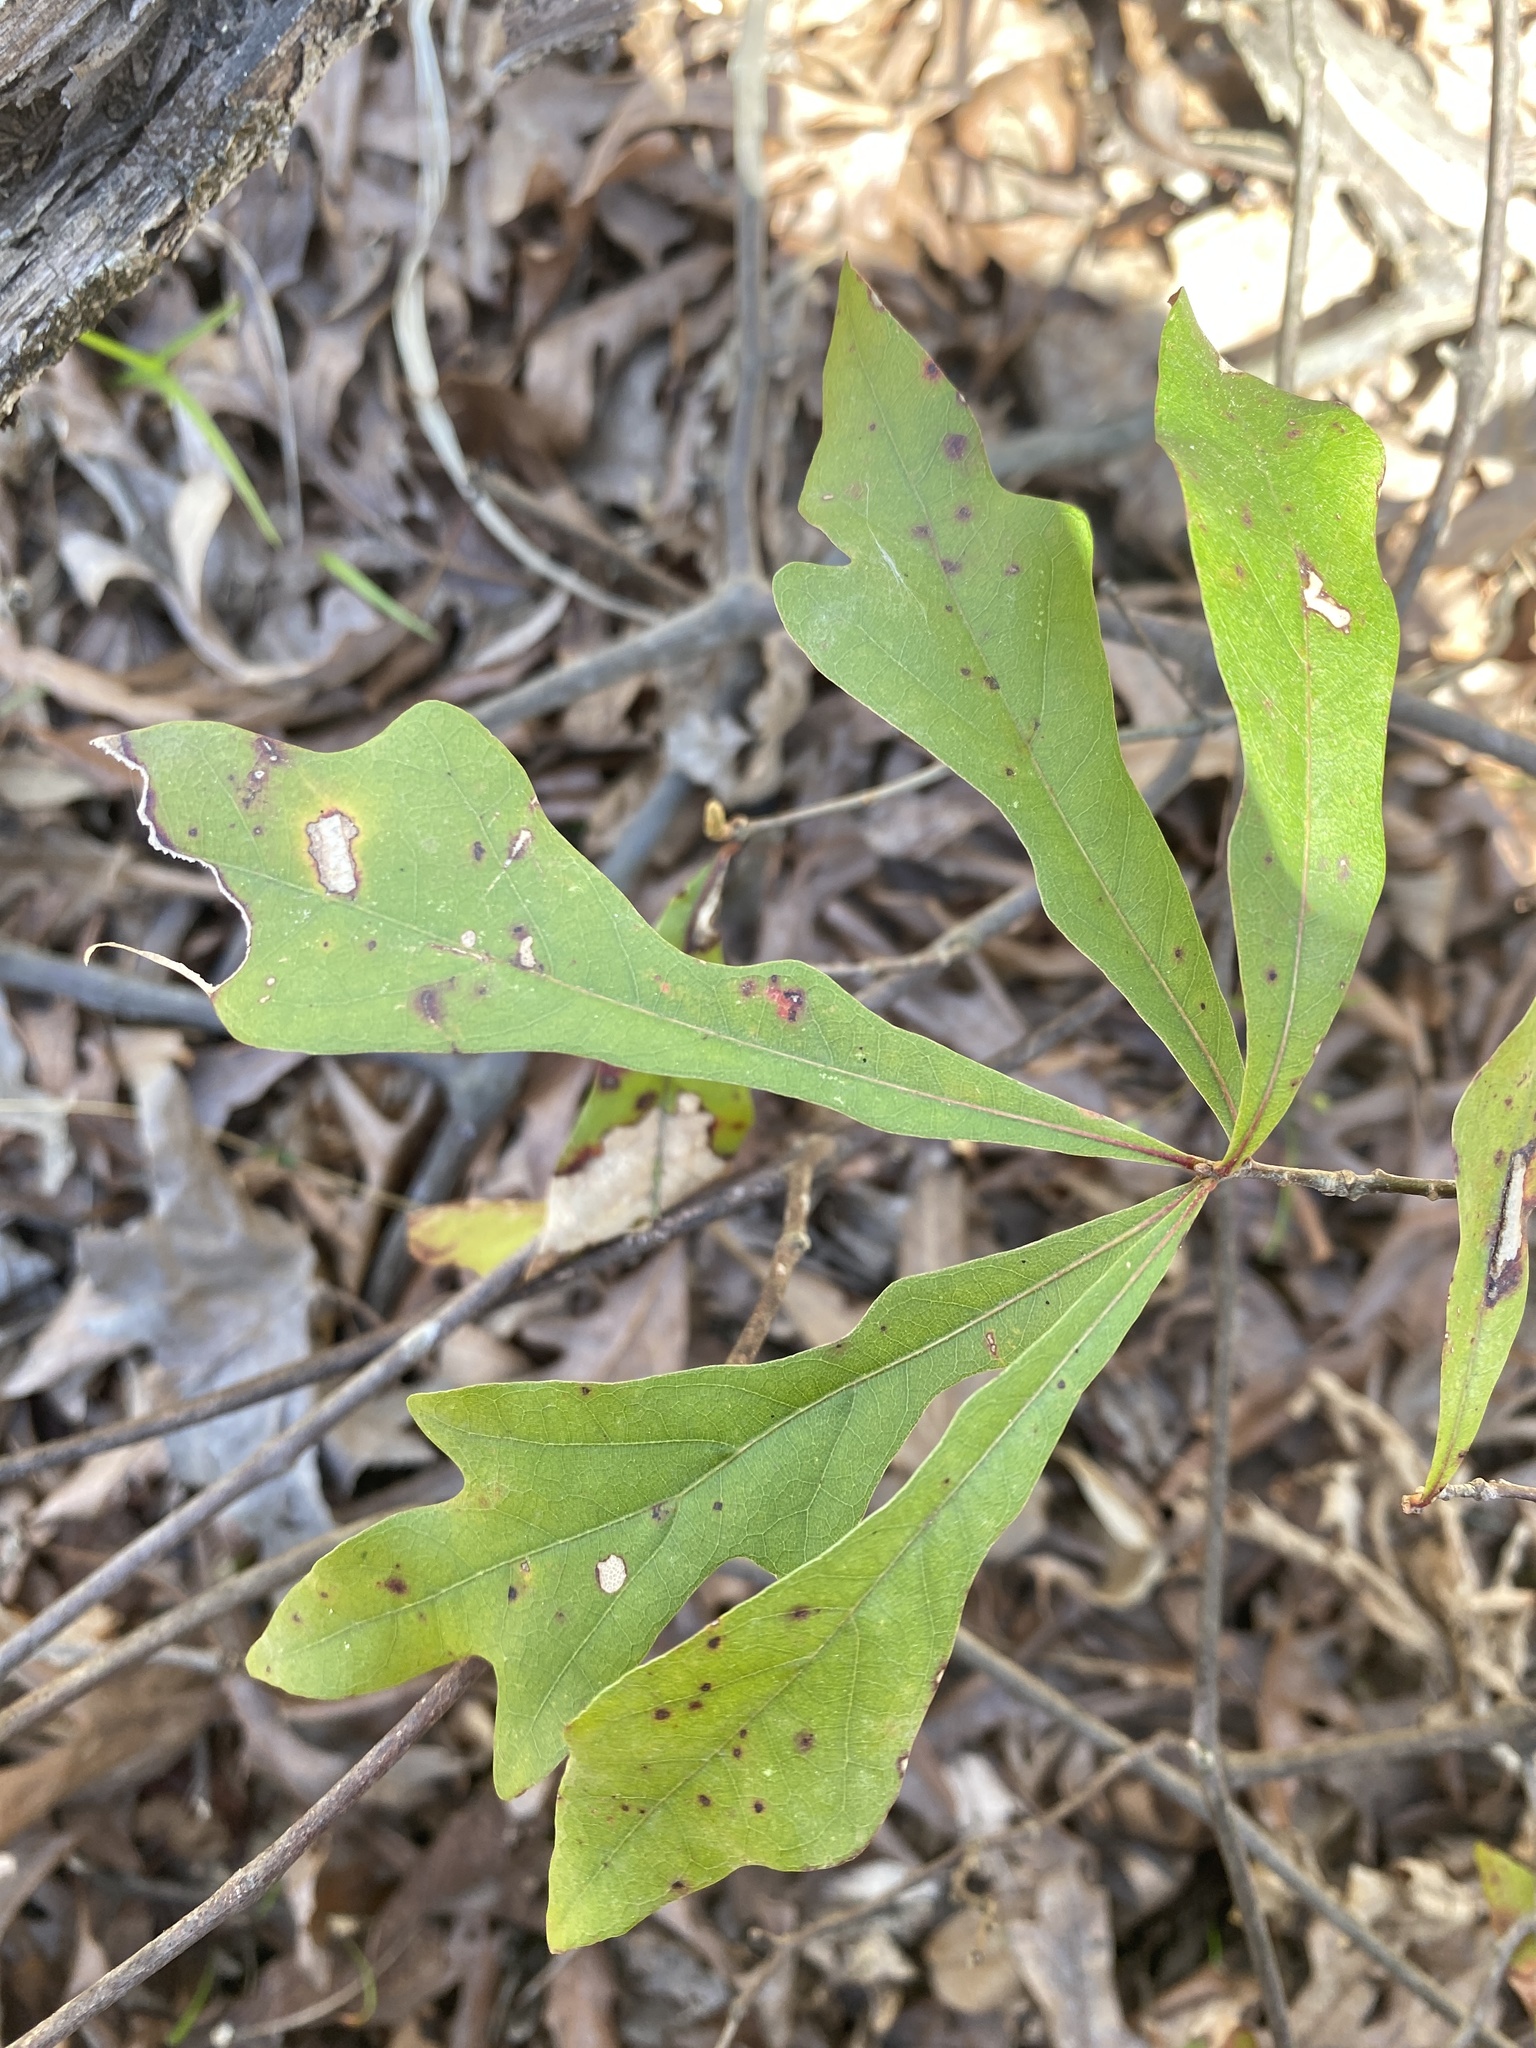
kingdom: Plantae
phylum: Tracheophyta
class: Magnoliopsida
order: Fagales
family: Fagaceae
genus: Quercus
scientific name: Quercus nigra
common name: Water oak
